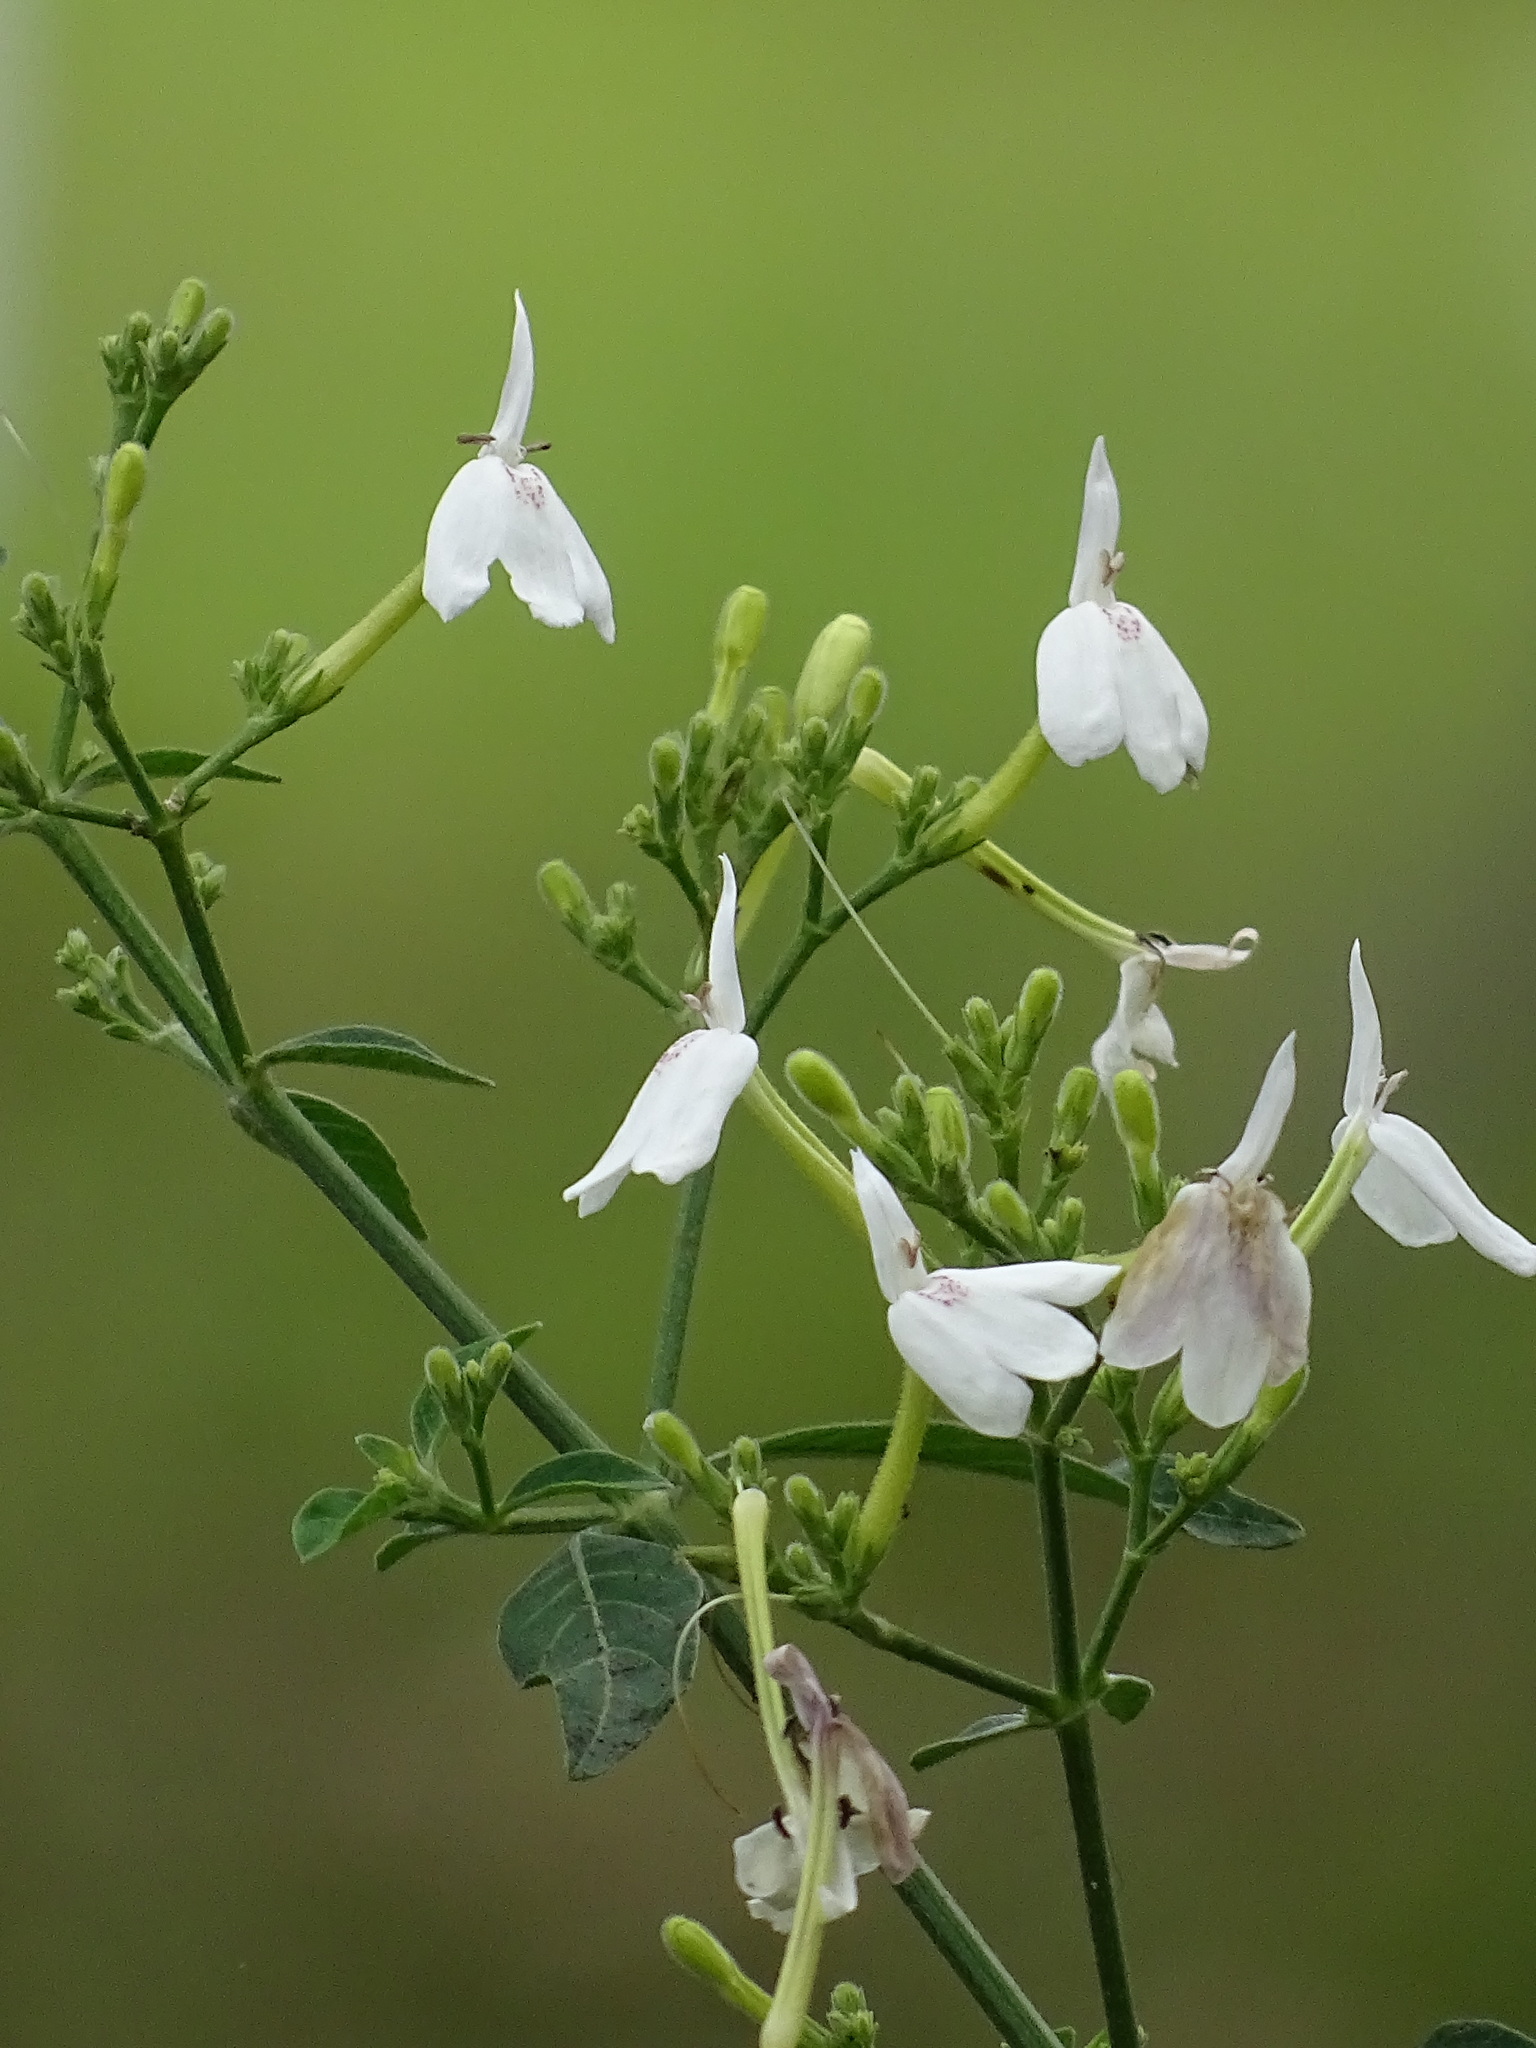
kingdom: Plantae
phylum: Tracheophyta
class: Magnoliopsida
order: Lamiales
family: Acanthaceae
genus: Rhinacanthus
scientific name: Rhinacanthus nasutus
